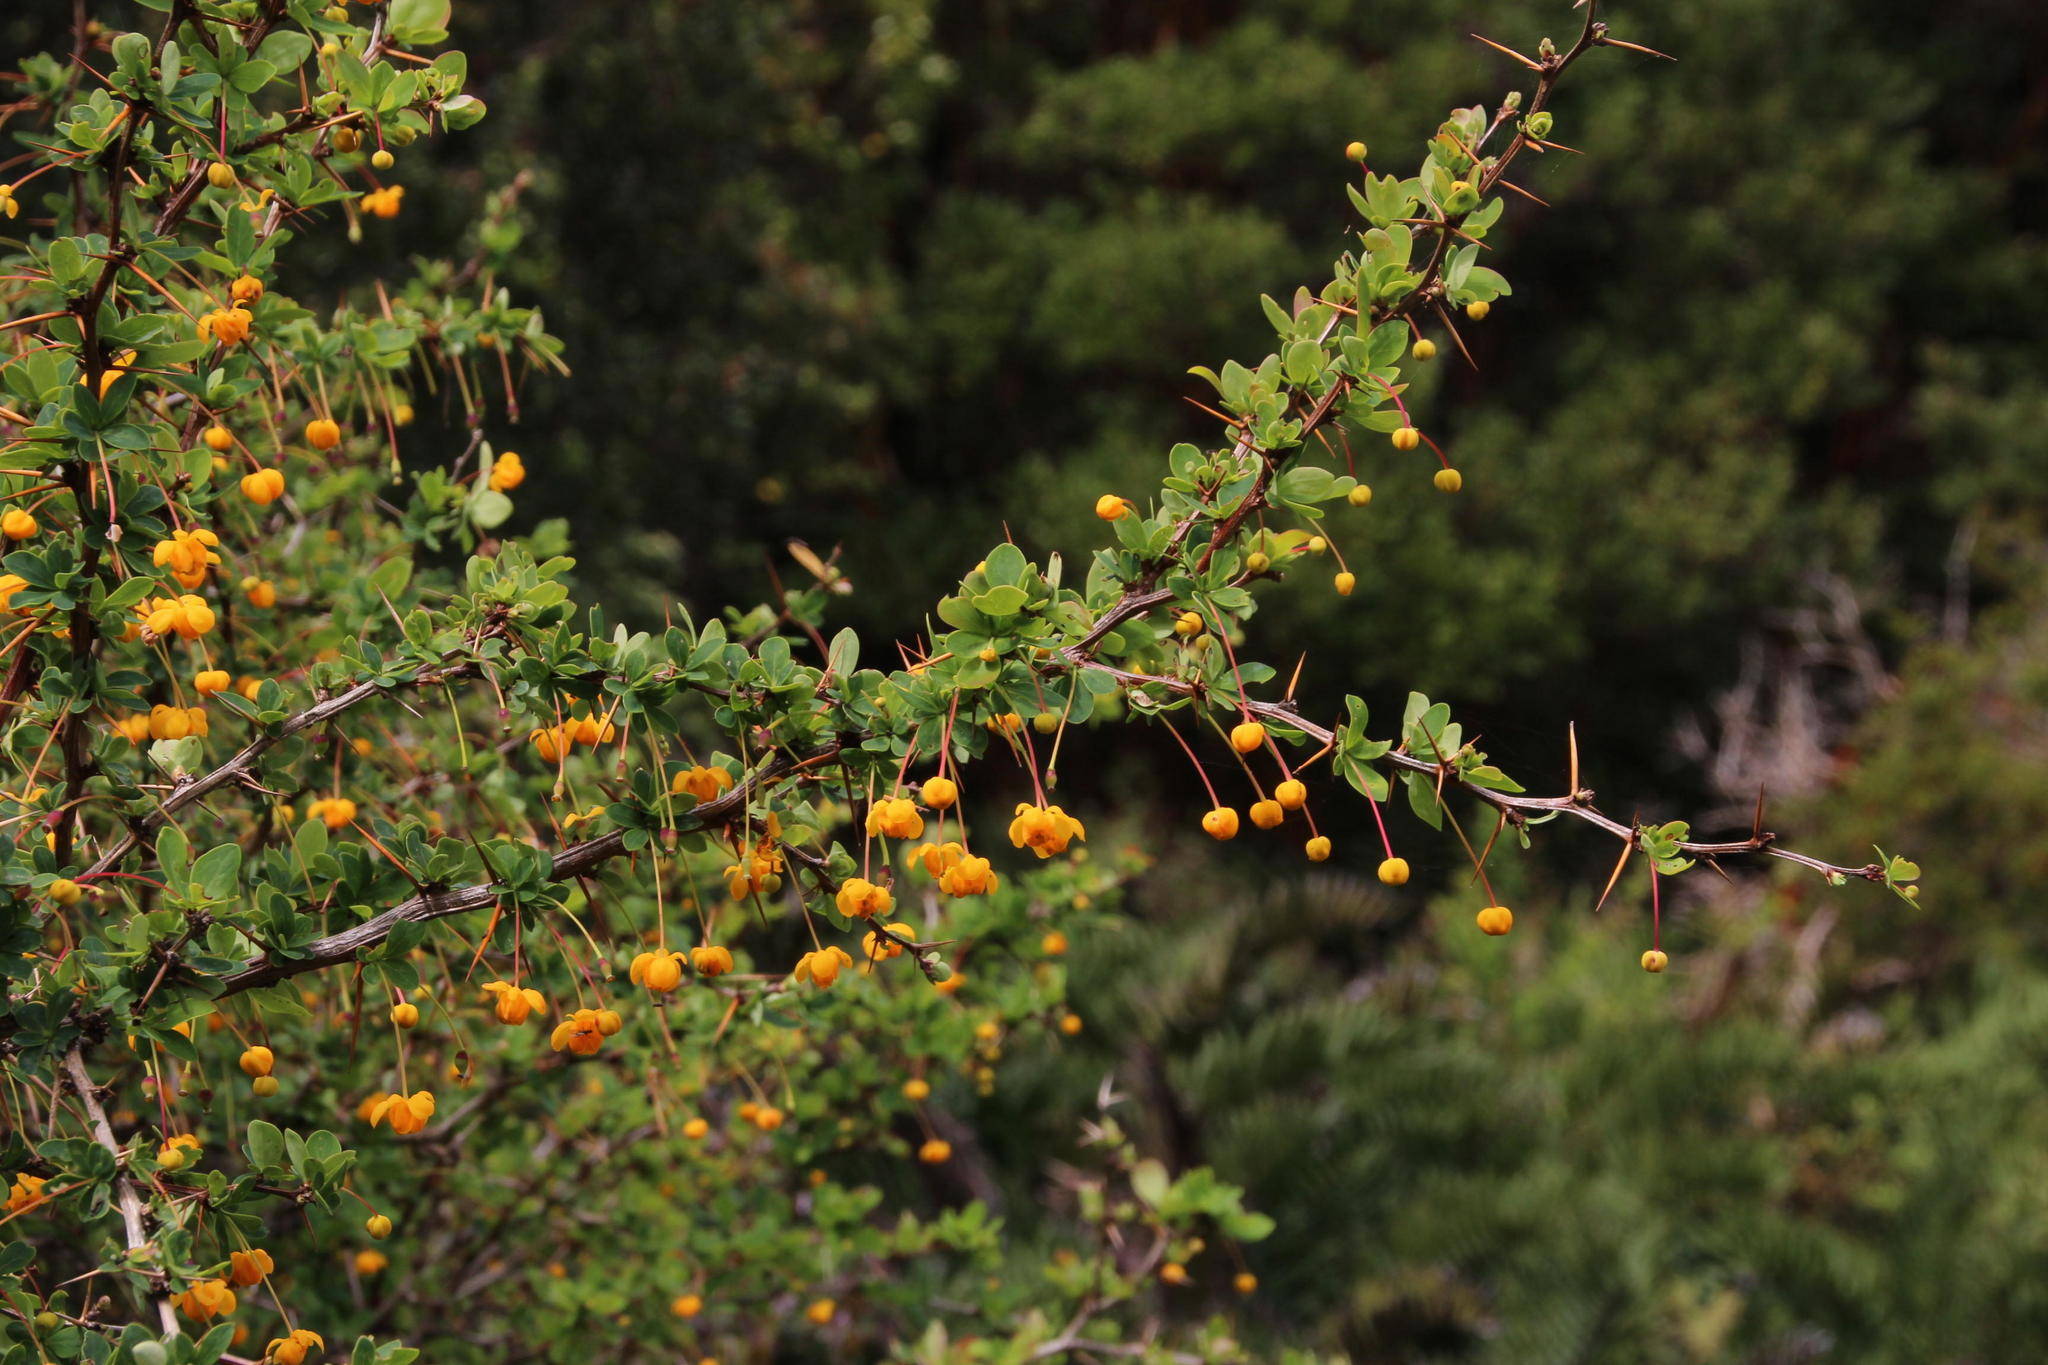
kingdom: Plantae
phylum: Tracheophyta
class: Magnoliopsida
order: Ranunculales
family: Berberidaceae
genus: Berberis
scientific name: Berberis microphylla
